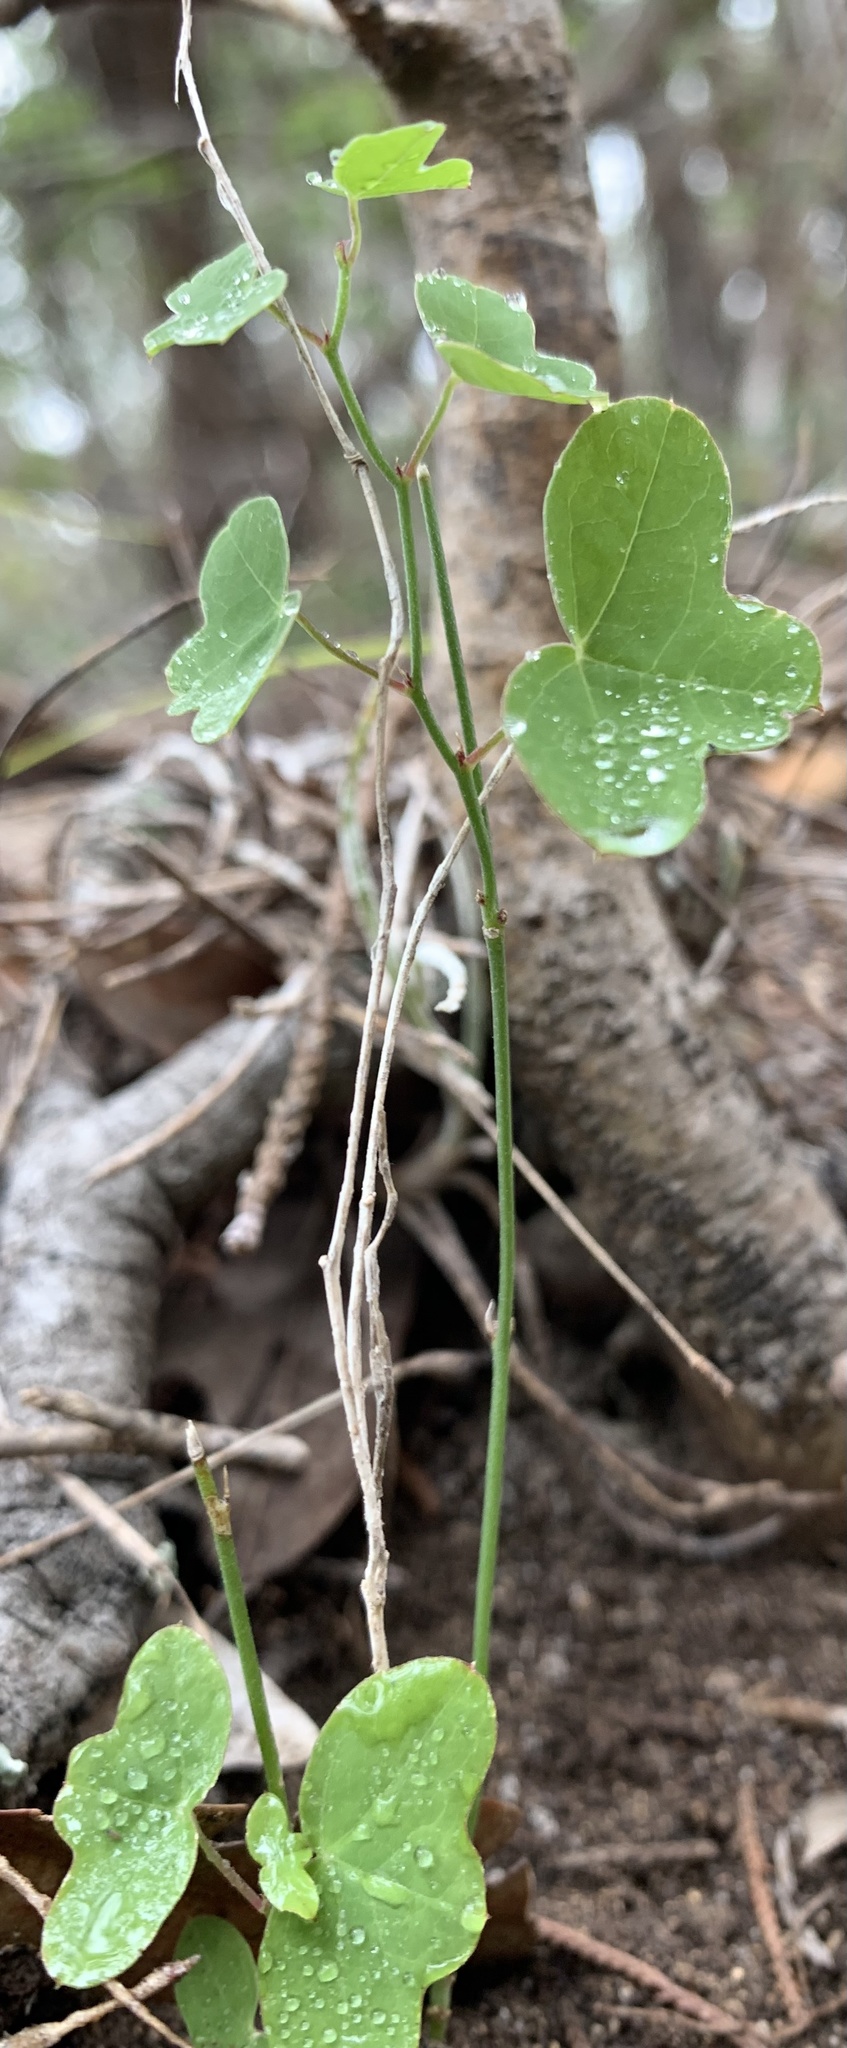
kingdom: Plantae
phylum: Tracheophyta
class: Magnoliopsida
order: Malpighiales
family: Passifloraceae
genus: Passiflora
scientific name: Passiflora lutea
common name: Yellow passionflower
